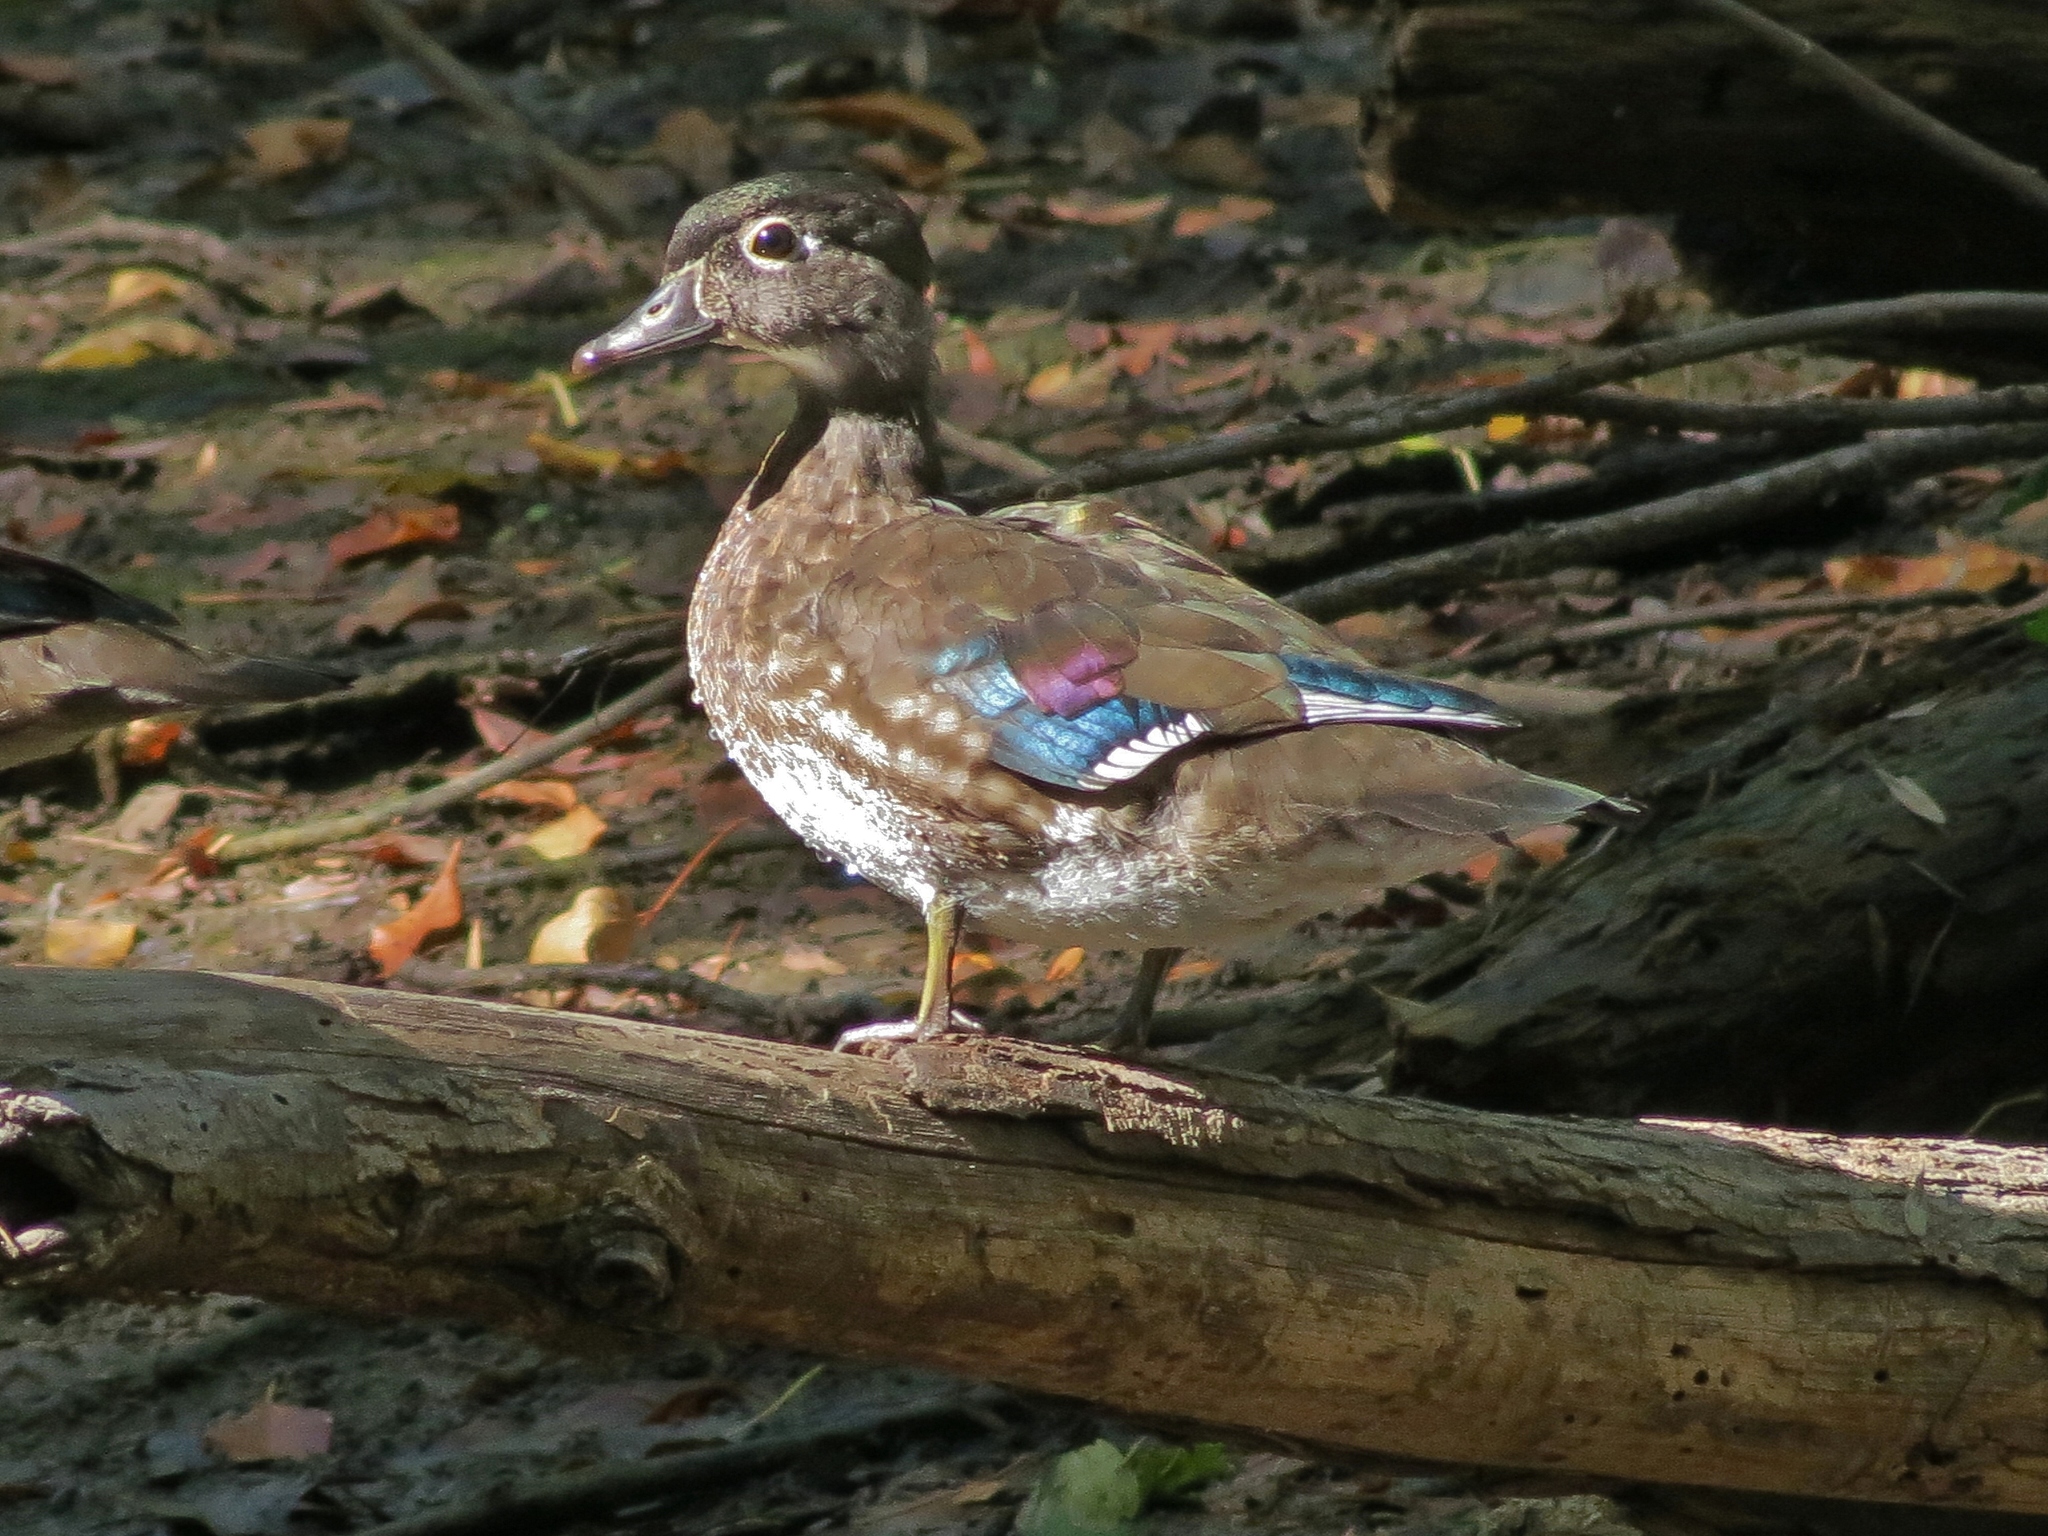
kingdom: Animalia
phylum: Chordata
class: Aves
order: Anseriformes
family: Anatidae
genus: Aix
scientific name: Aix sponsa
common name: Wood duck
